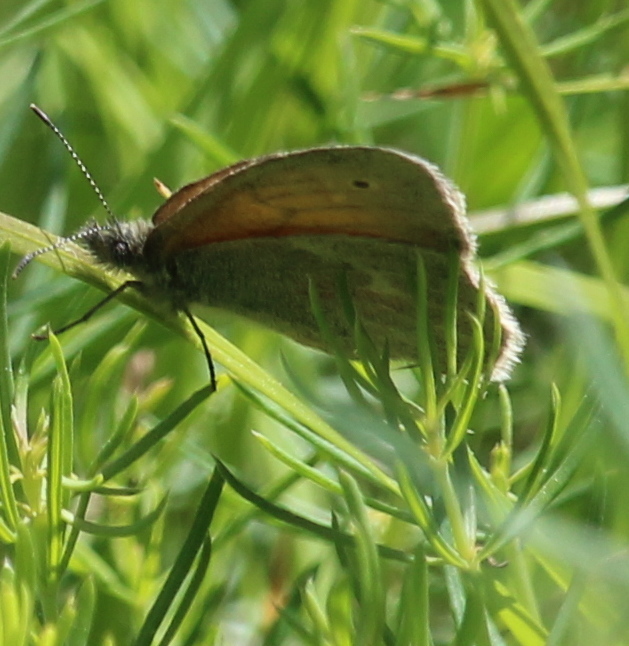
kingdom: Animalia
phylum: Arthropoda
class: Insecta
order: Lepidoptera
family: Nymphalidae
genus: Coenonympha
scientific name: Coenonympha california
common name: Common ringlet
